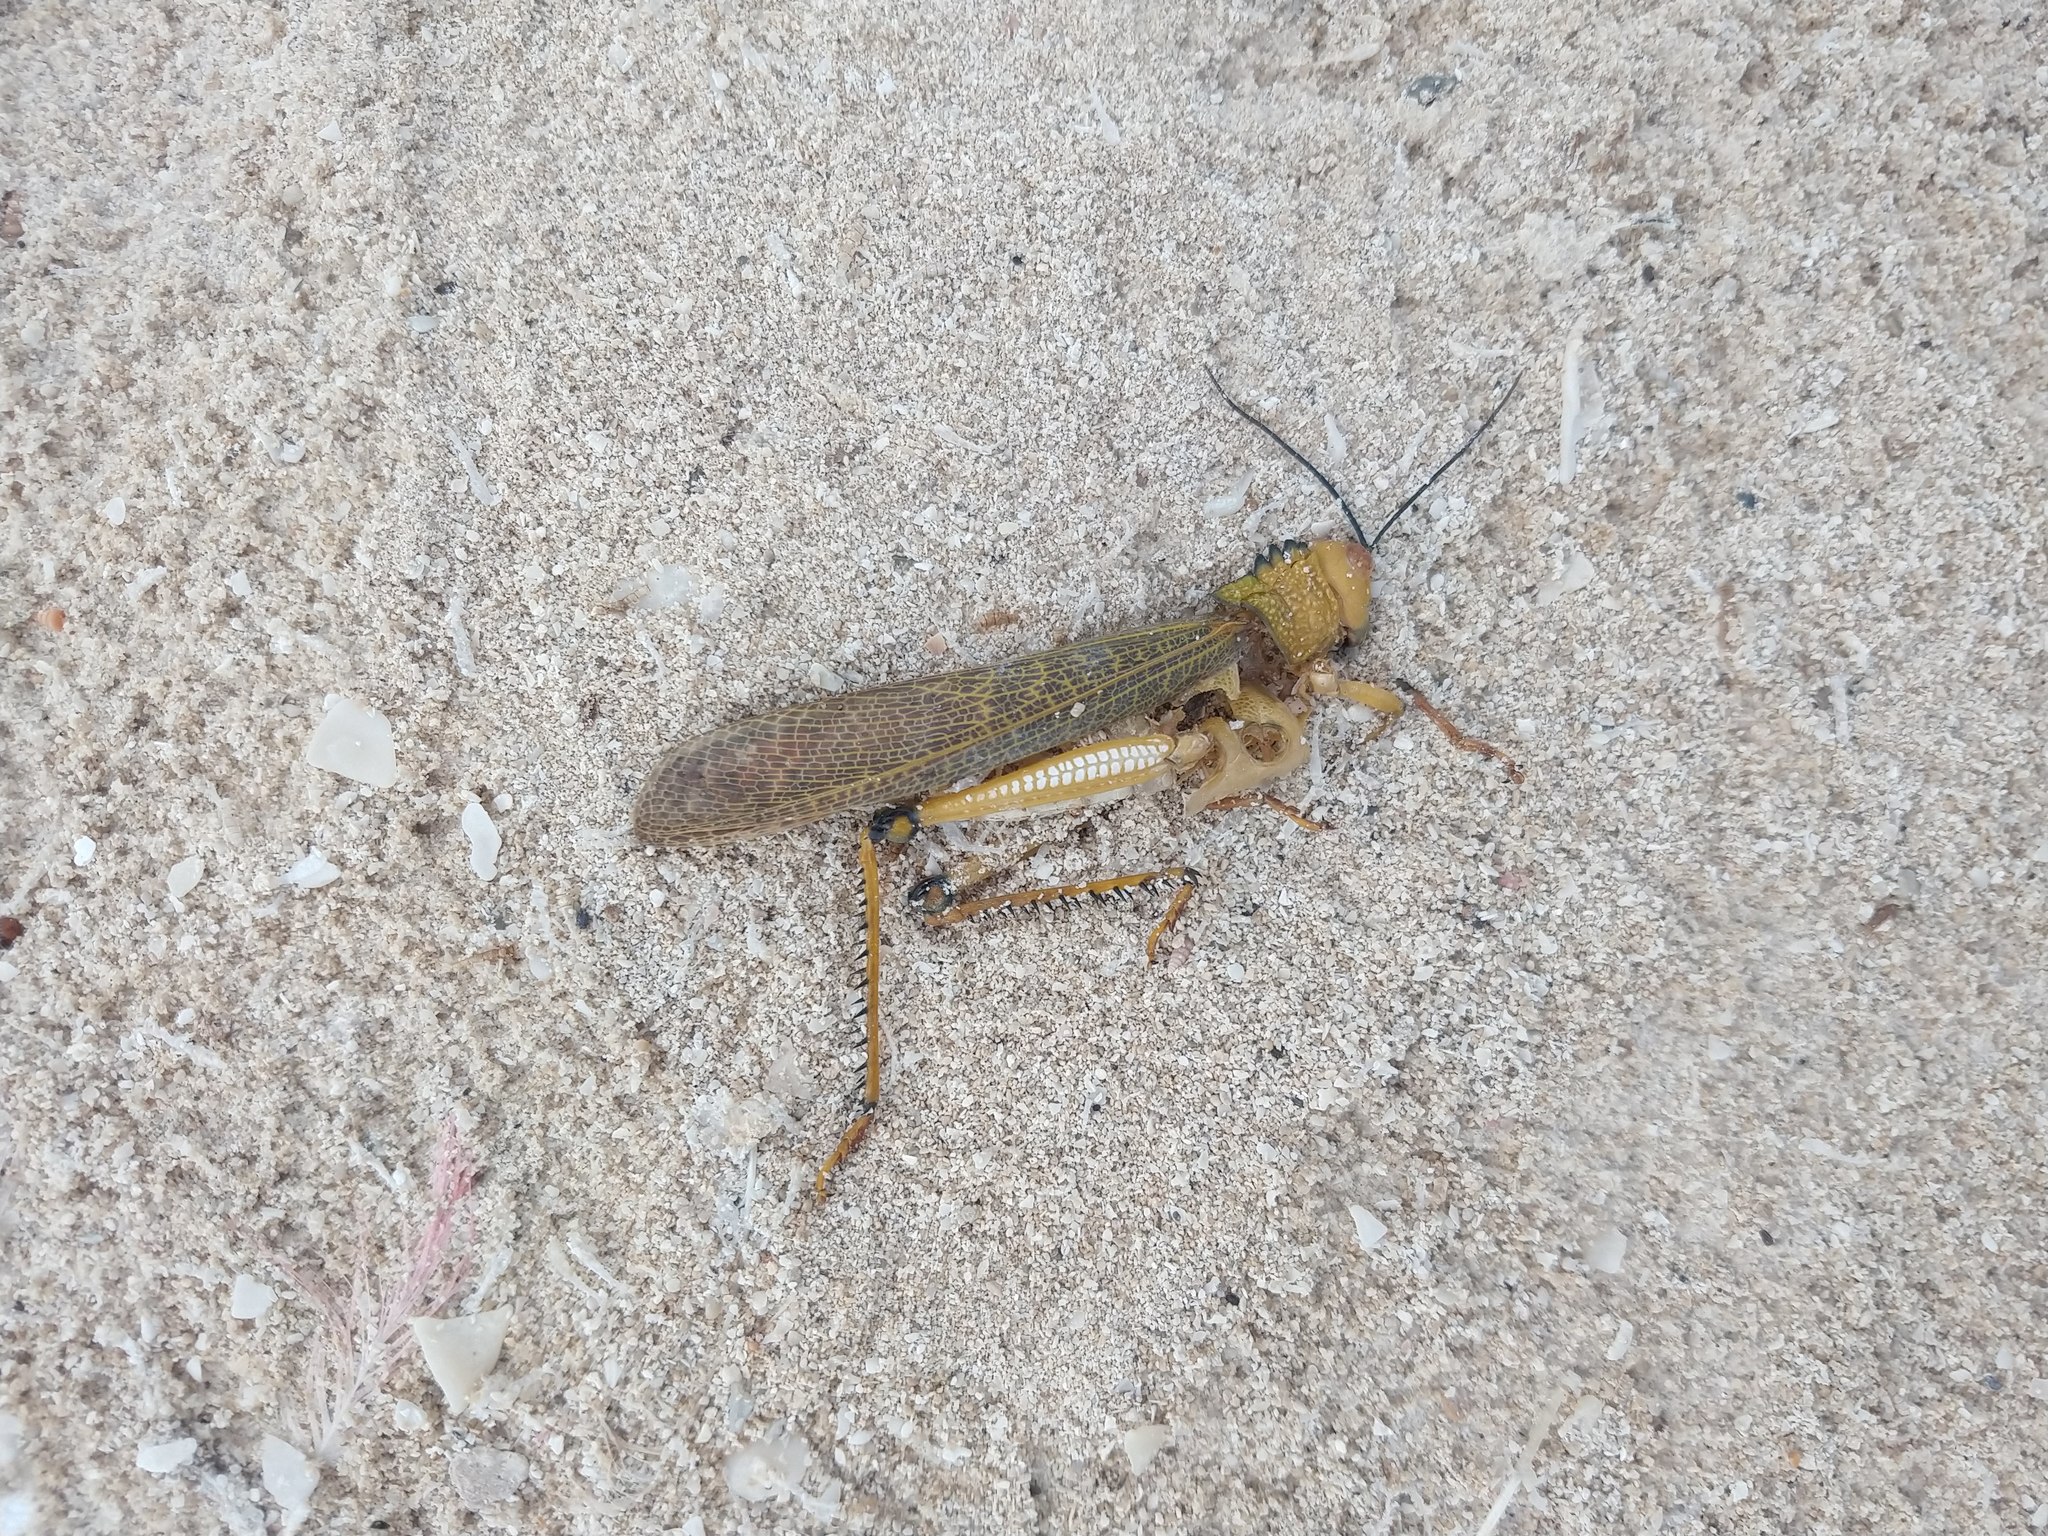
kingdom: Animalia
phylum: Arthropoda
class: Insecta
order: Orthoptera
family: Romaleidae
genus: Tropidacris
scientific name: Tropidacris cristata
